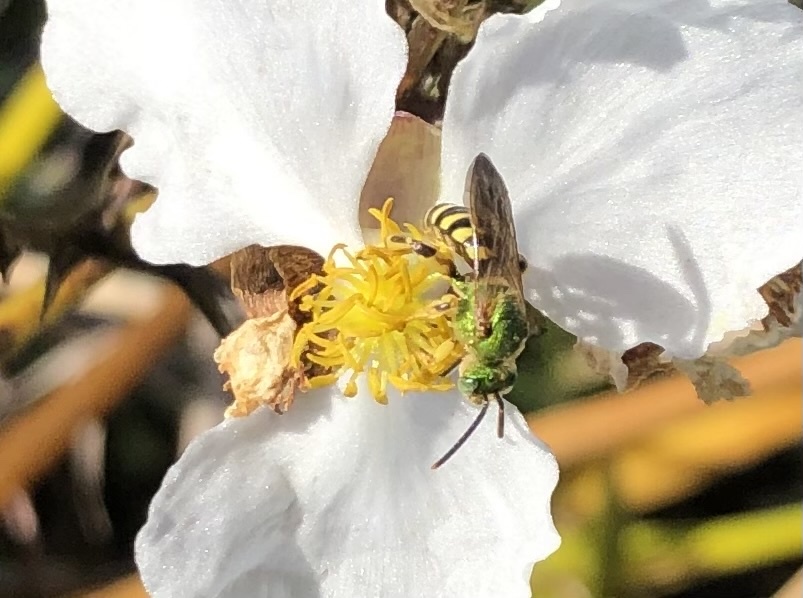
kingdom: Animalia
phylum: Arthropoda
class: Insecta
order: Hymenoptera
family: Halictidae
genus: Agapostemon
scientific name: Agapostemon splendens
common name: Brown-winged striped sweat bee
